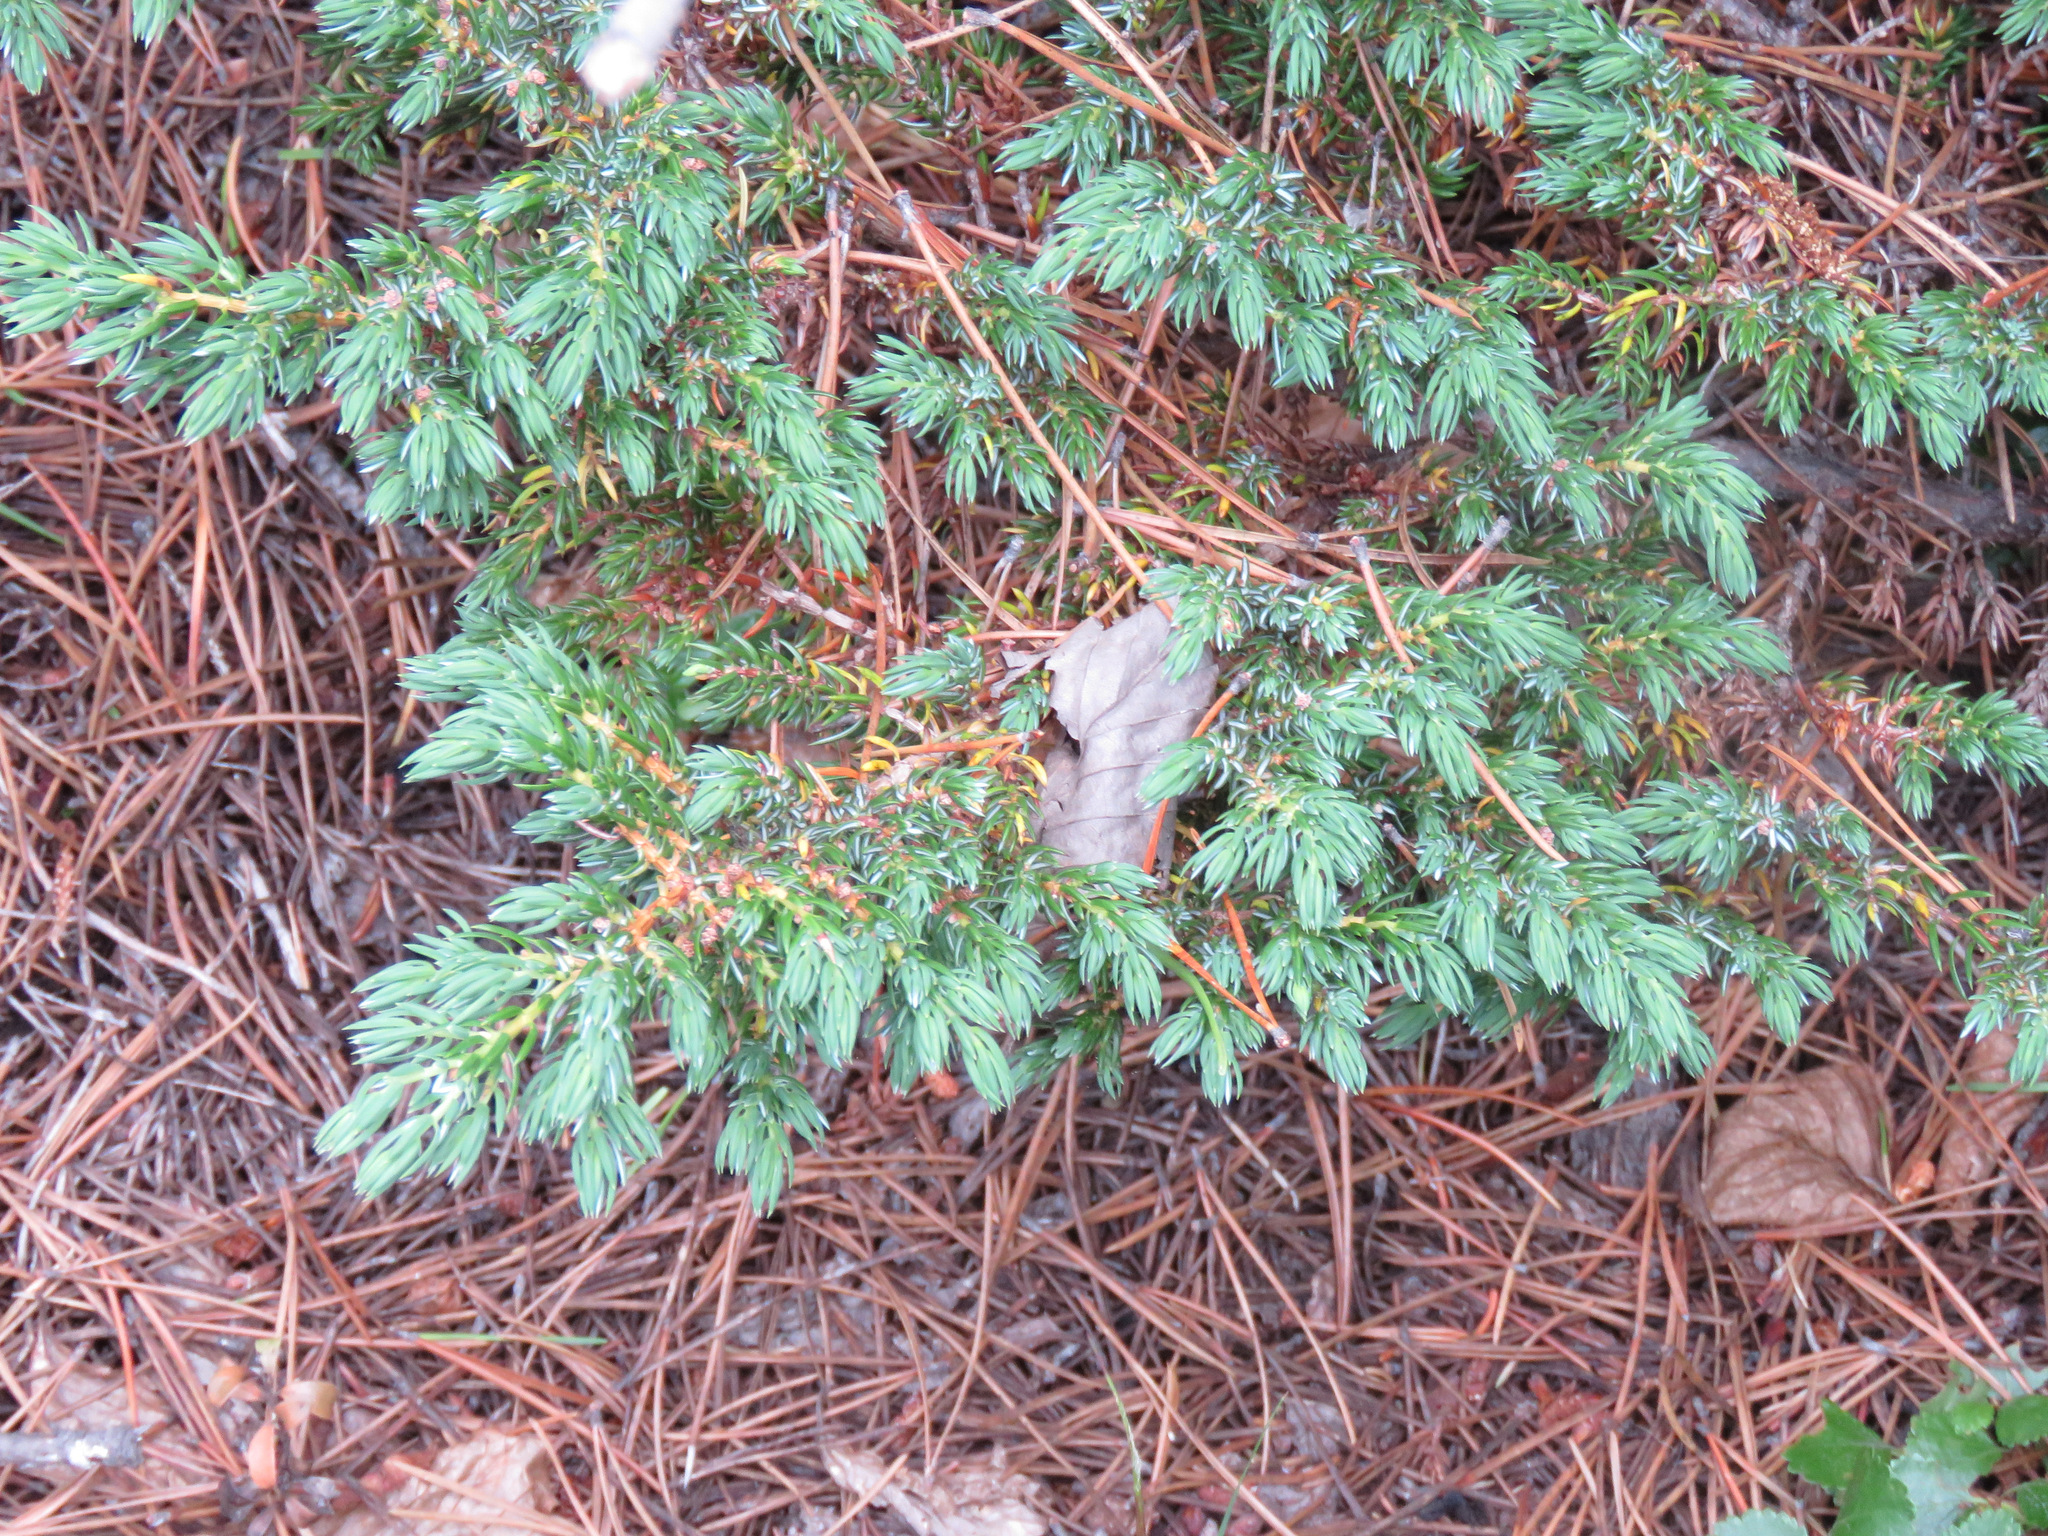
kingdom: Plantae
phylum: Tracheophyta
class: Pinopsida
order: Pinales
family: Cupressaceae
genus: Juniperus
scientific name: Juniperus communis
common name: Common juniper
